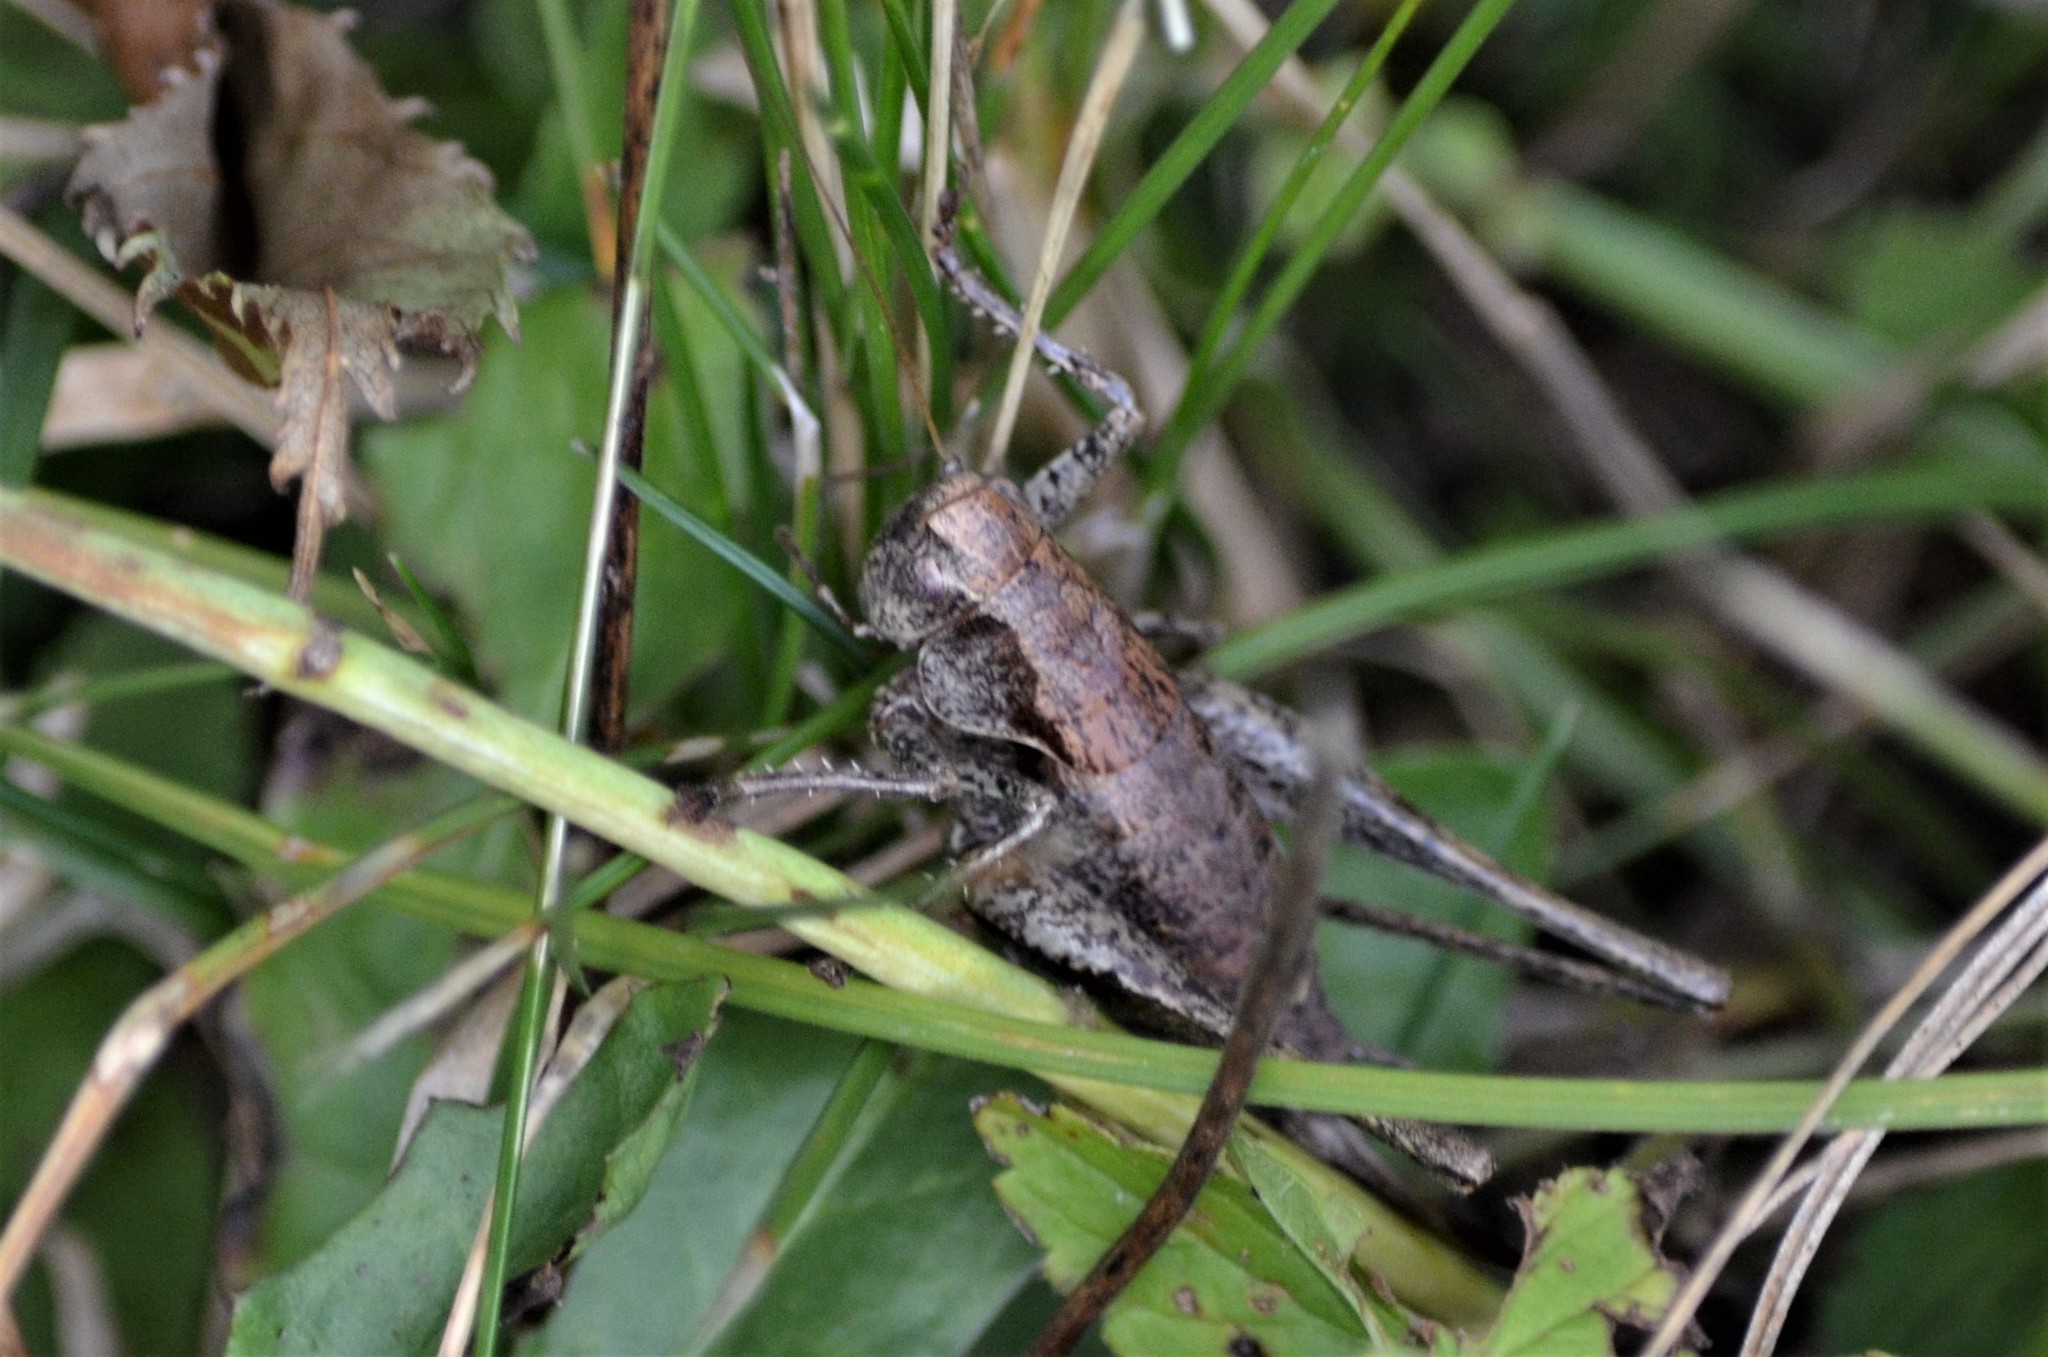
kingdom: Animalia
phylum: Arthropoda
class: Insecta
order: Orthoptera
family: Tettigoniidae
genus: Pholidoptera
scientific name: Pholidoptera griseoaptera
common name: Dark bush-cricket
